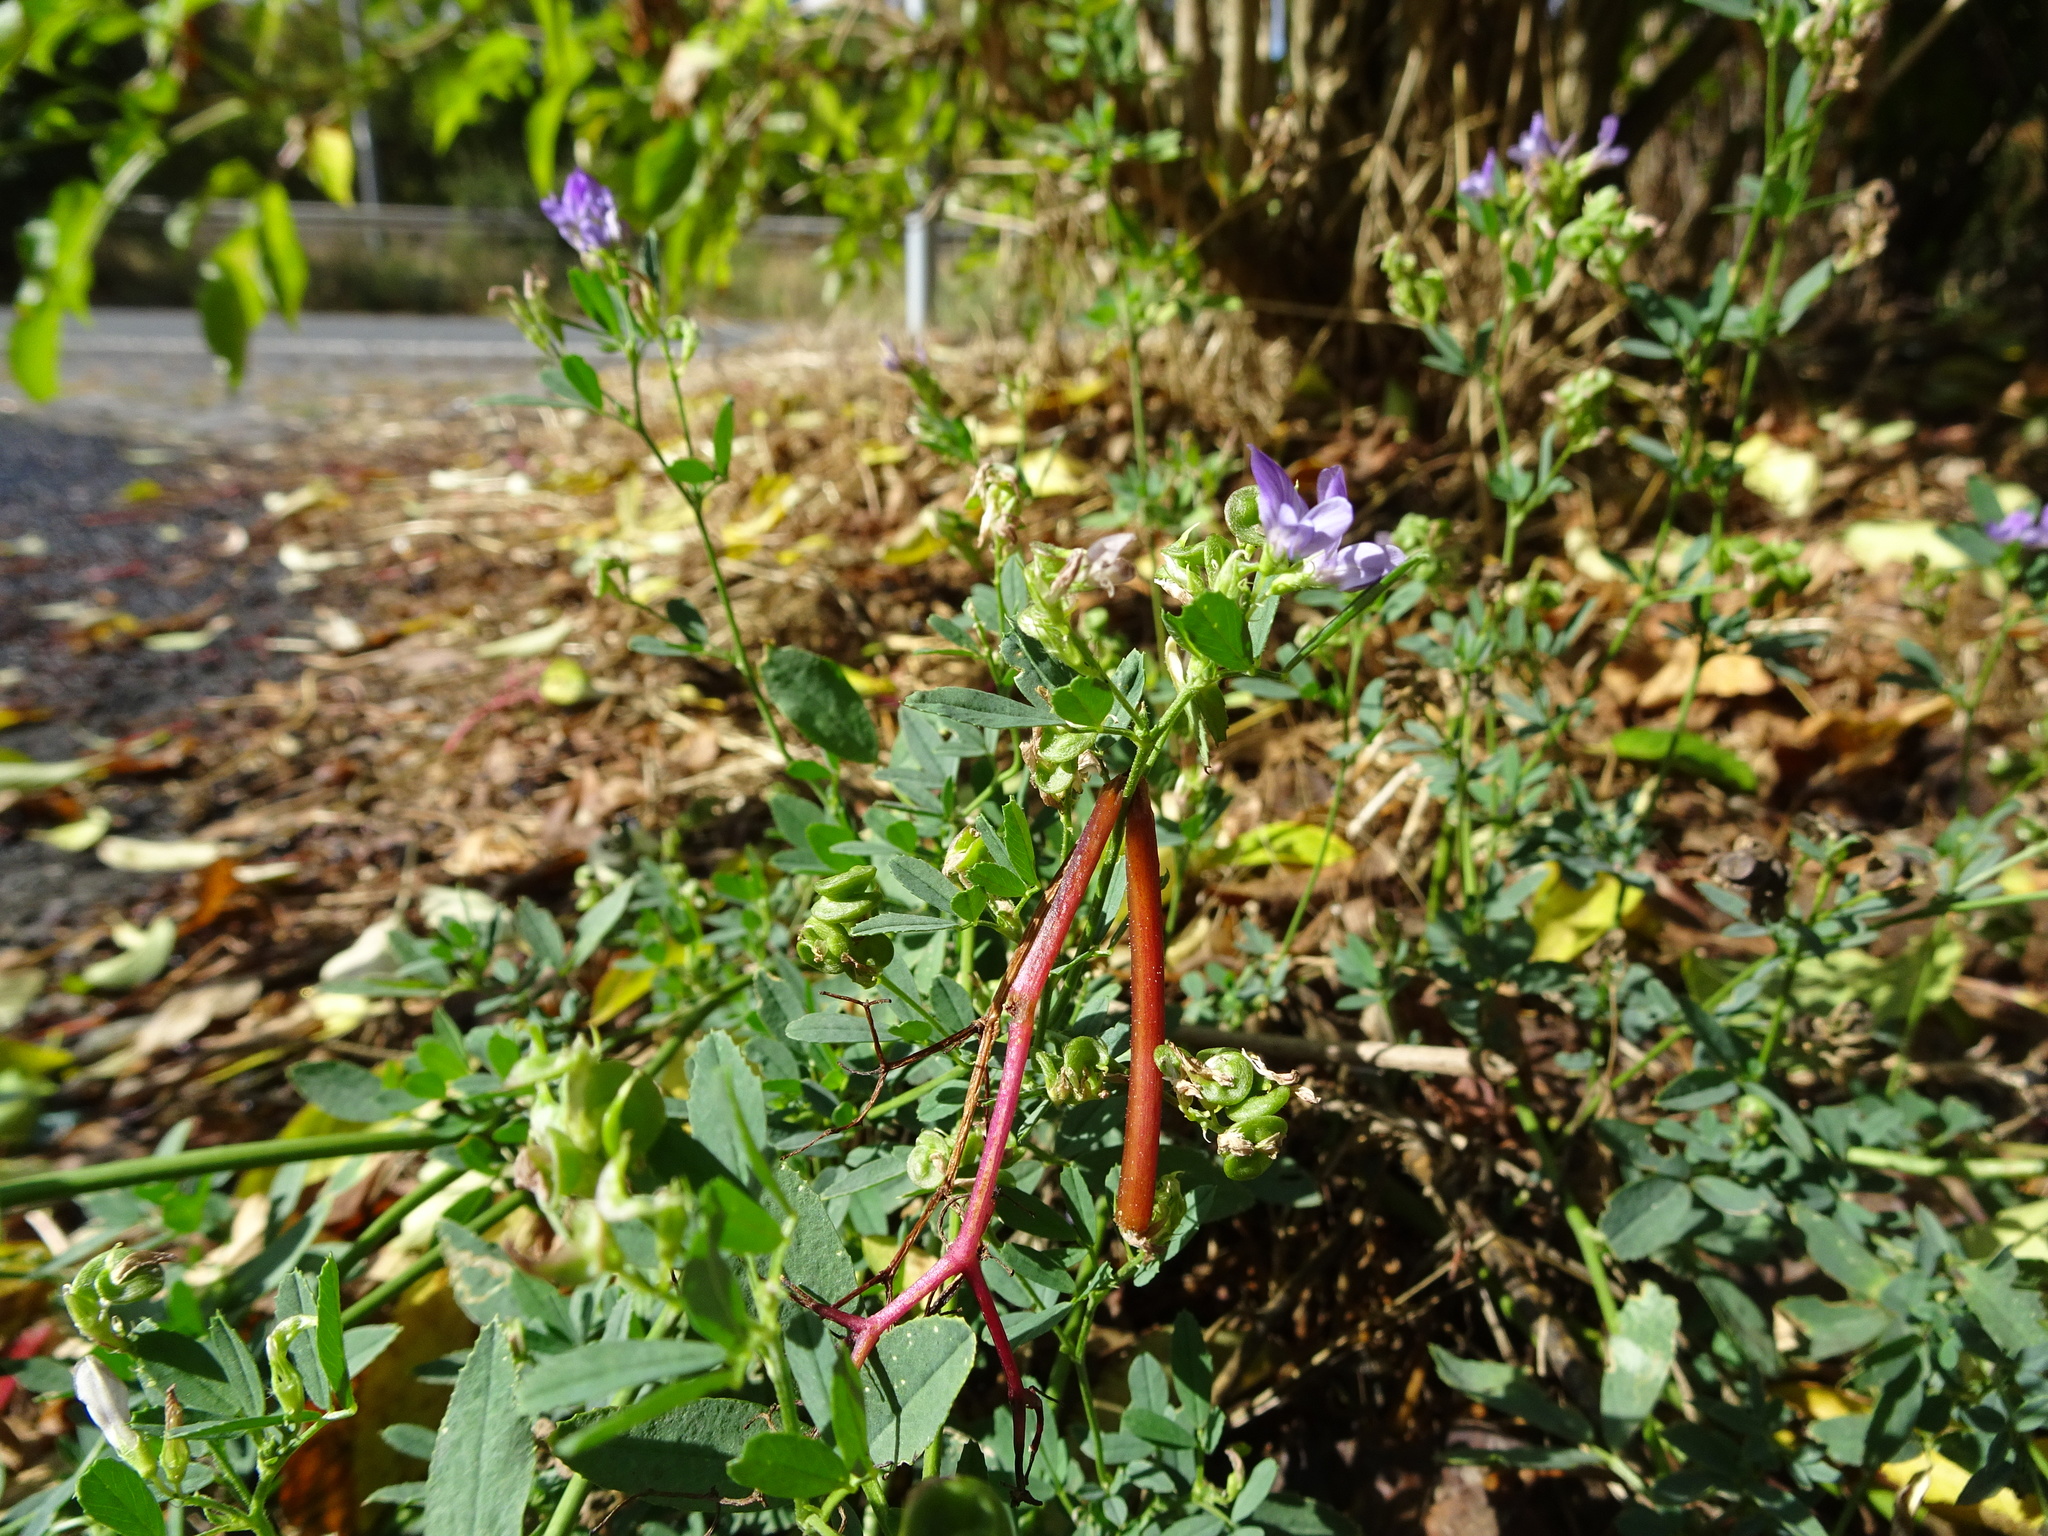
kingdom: Plantae
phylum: Tracheophyta
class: Magnoliopsida
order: Fabales
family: Fabaceae
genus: Medicago
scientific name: Medicago varia
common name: Sand lucerne
